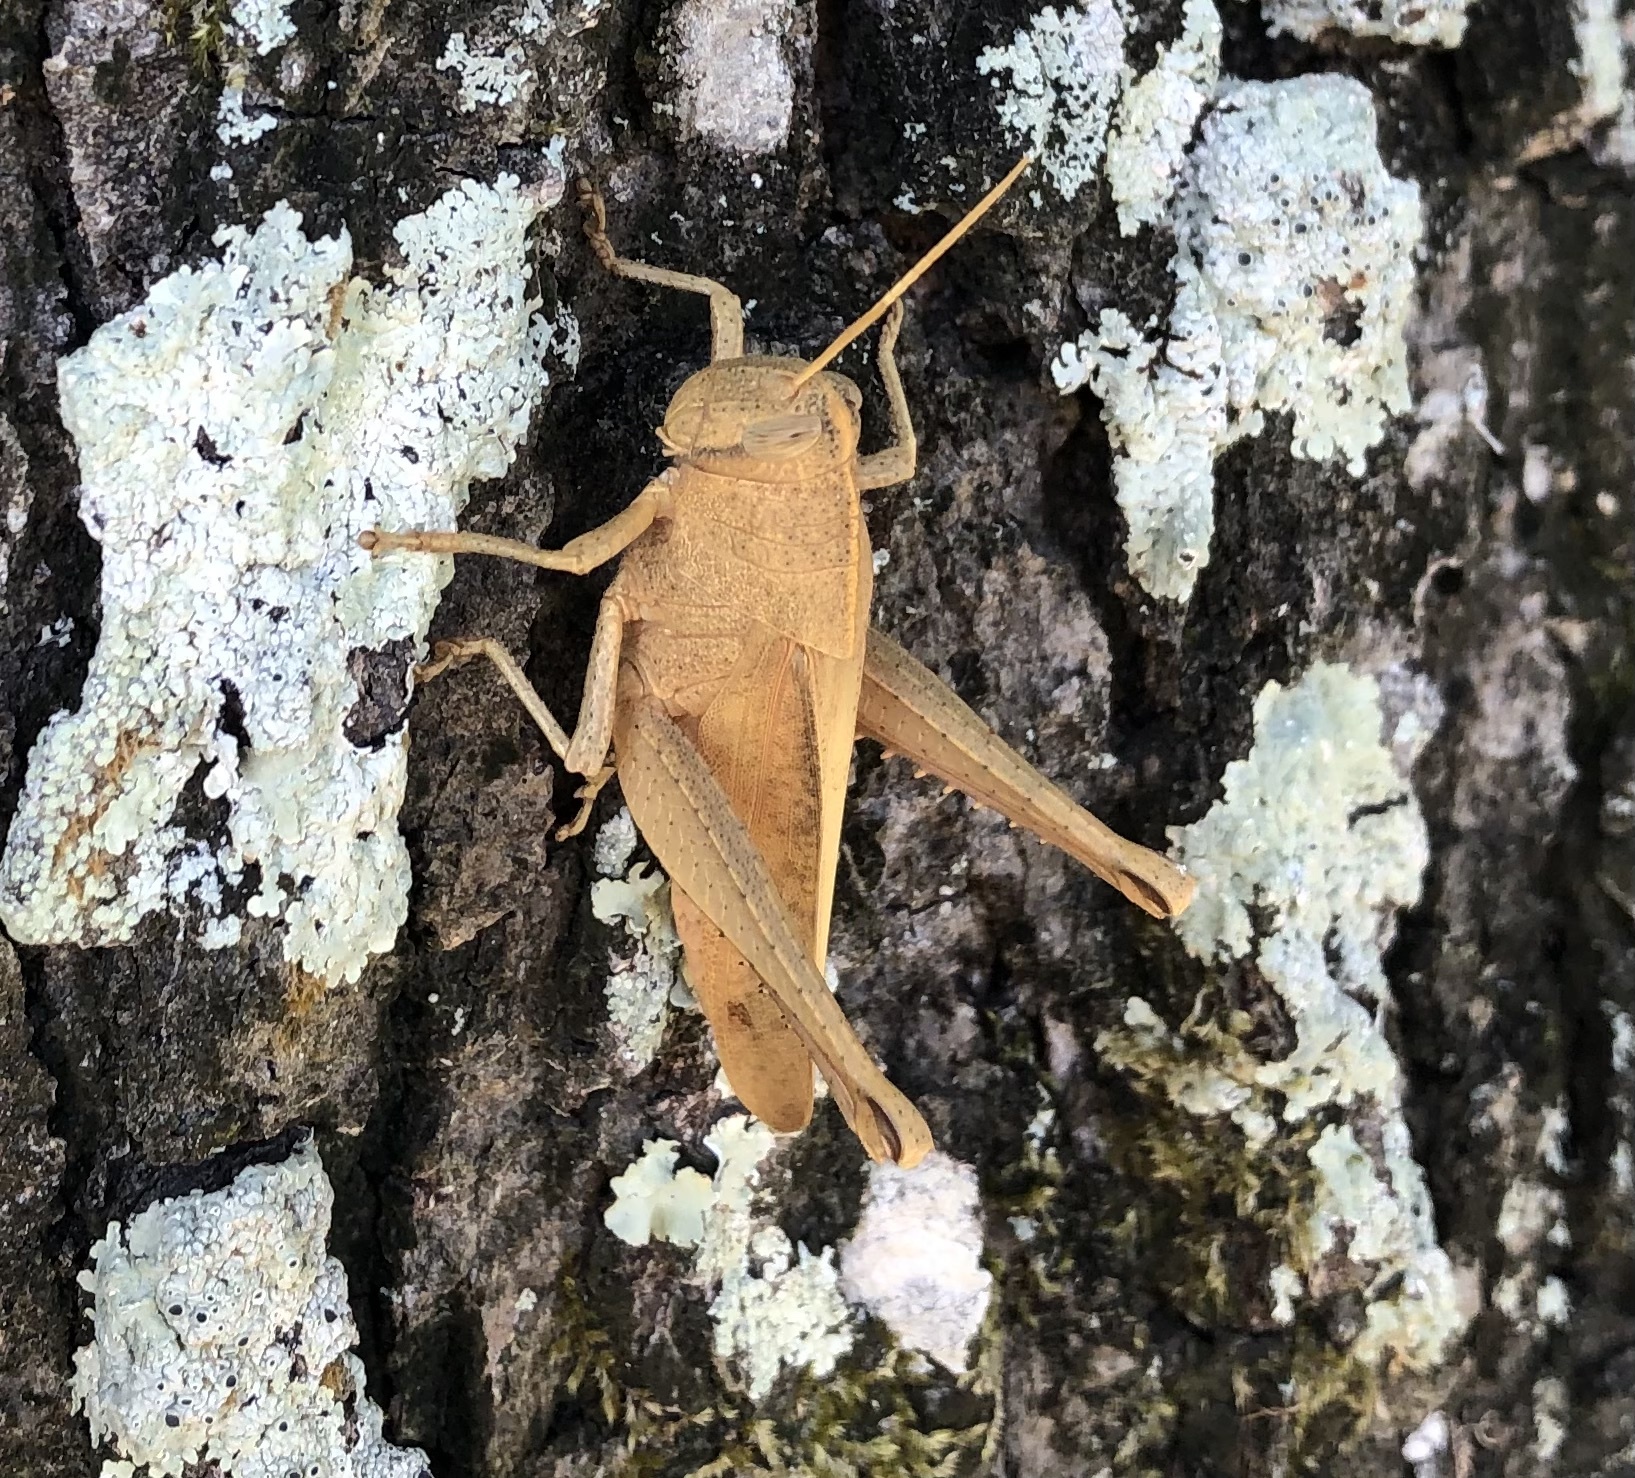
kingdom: Animalia
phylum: Arthropoda
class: Insecta
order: Orthoptera
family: Acrididae
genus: Schistocerca
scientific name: Schistocerca damnifica
